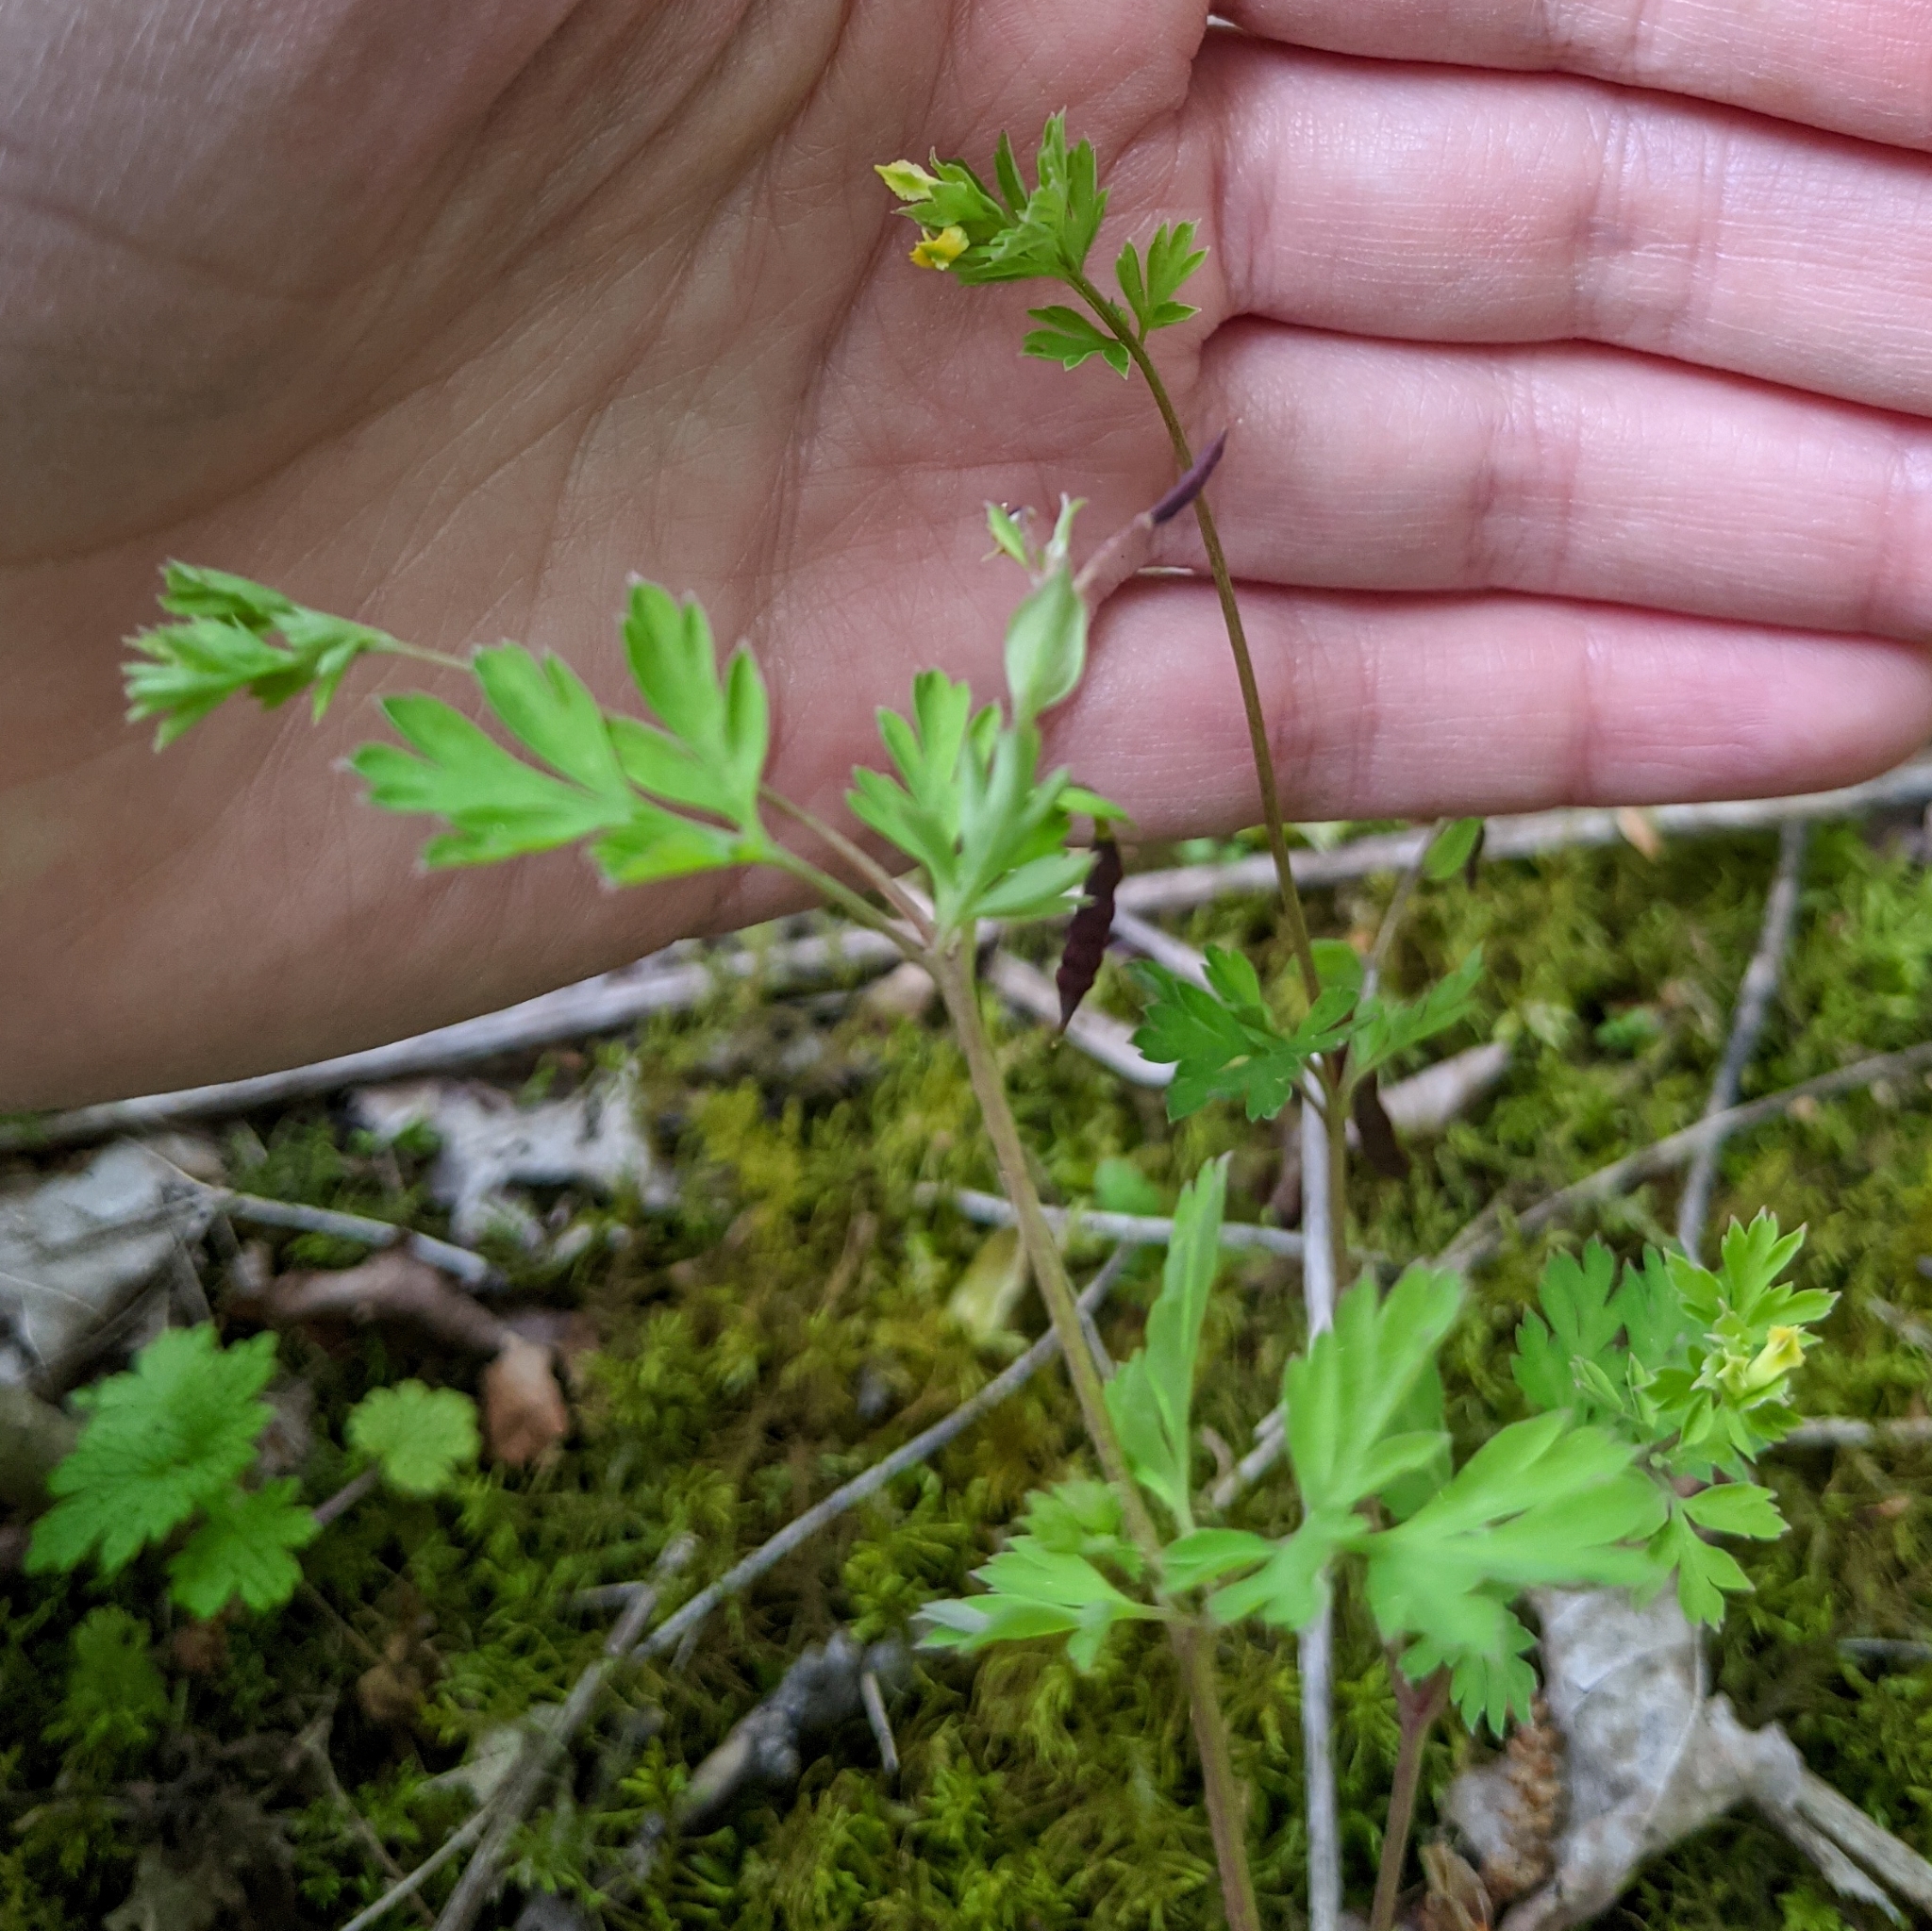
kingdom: Plantae
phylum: Tracheophyta
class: Magnoliopsida
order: Ranunculales
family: Papaveraceae
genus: Corydalis
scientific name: Corydalis flavula
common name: Yellow corydalis
